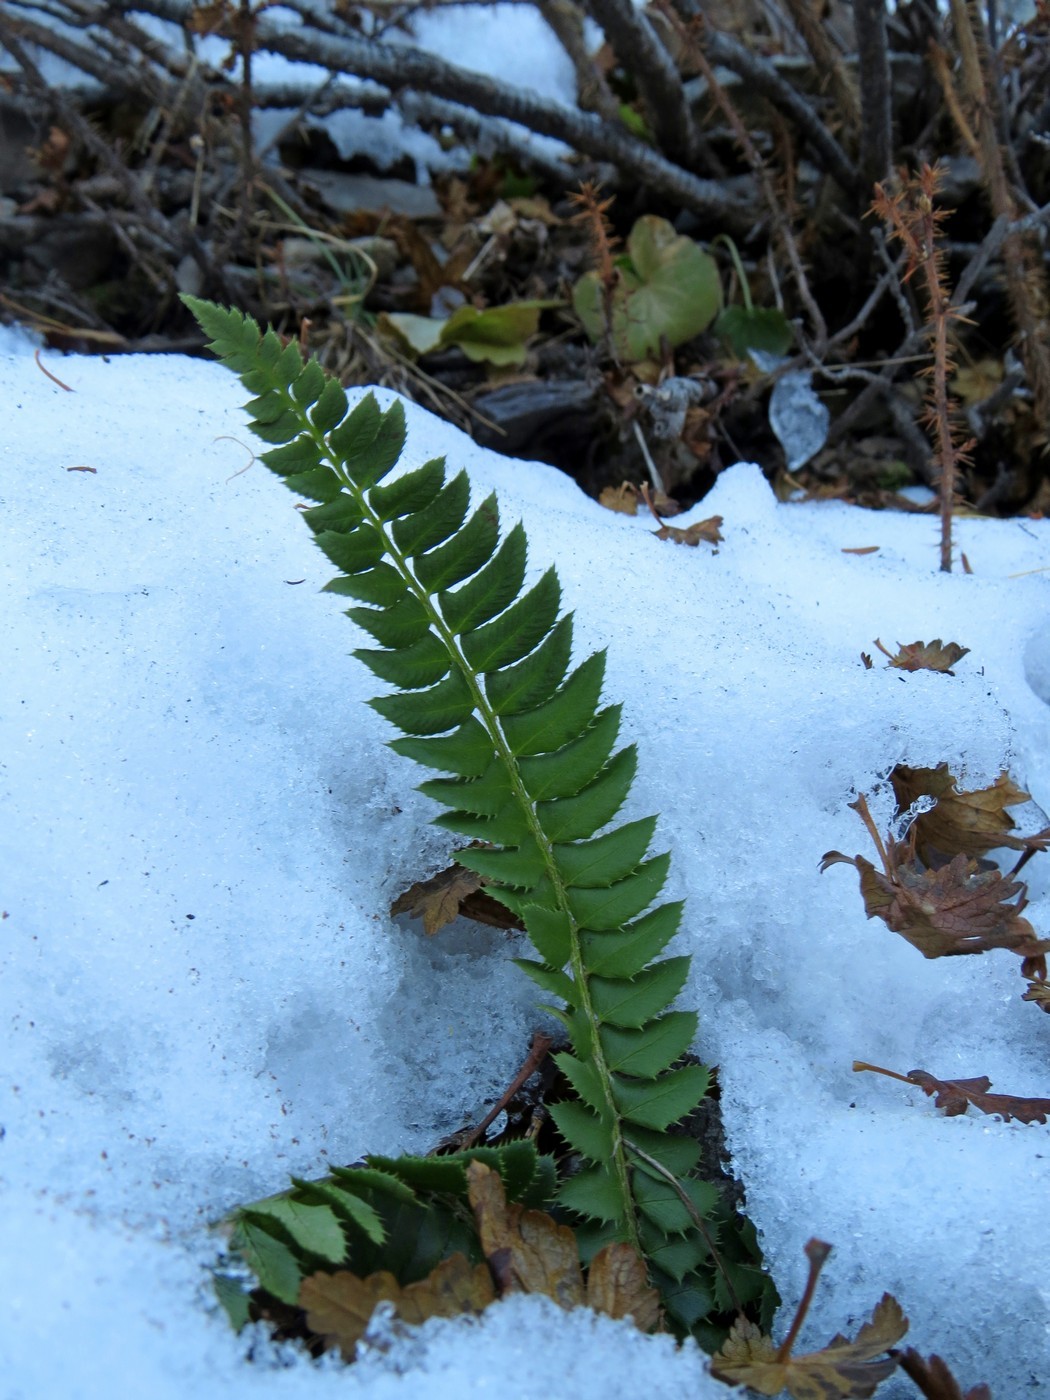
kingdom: Plantae
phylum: Tracheophyta
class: Polypodiopsida
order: Polypodiales
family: Dryopteridaceae
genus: Polystichum
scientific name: Polystichum lonchitis
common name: Holly fern
